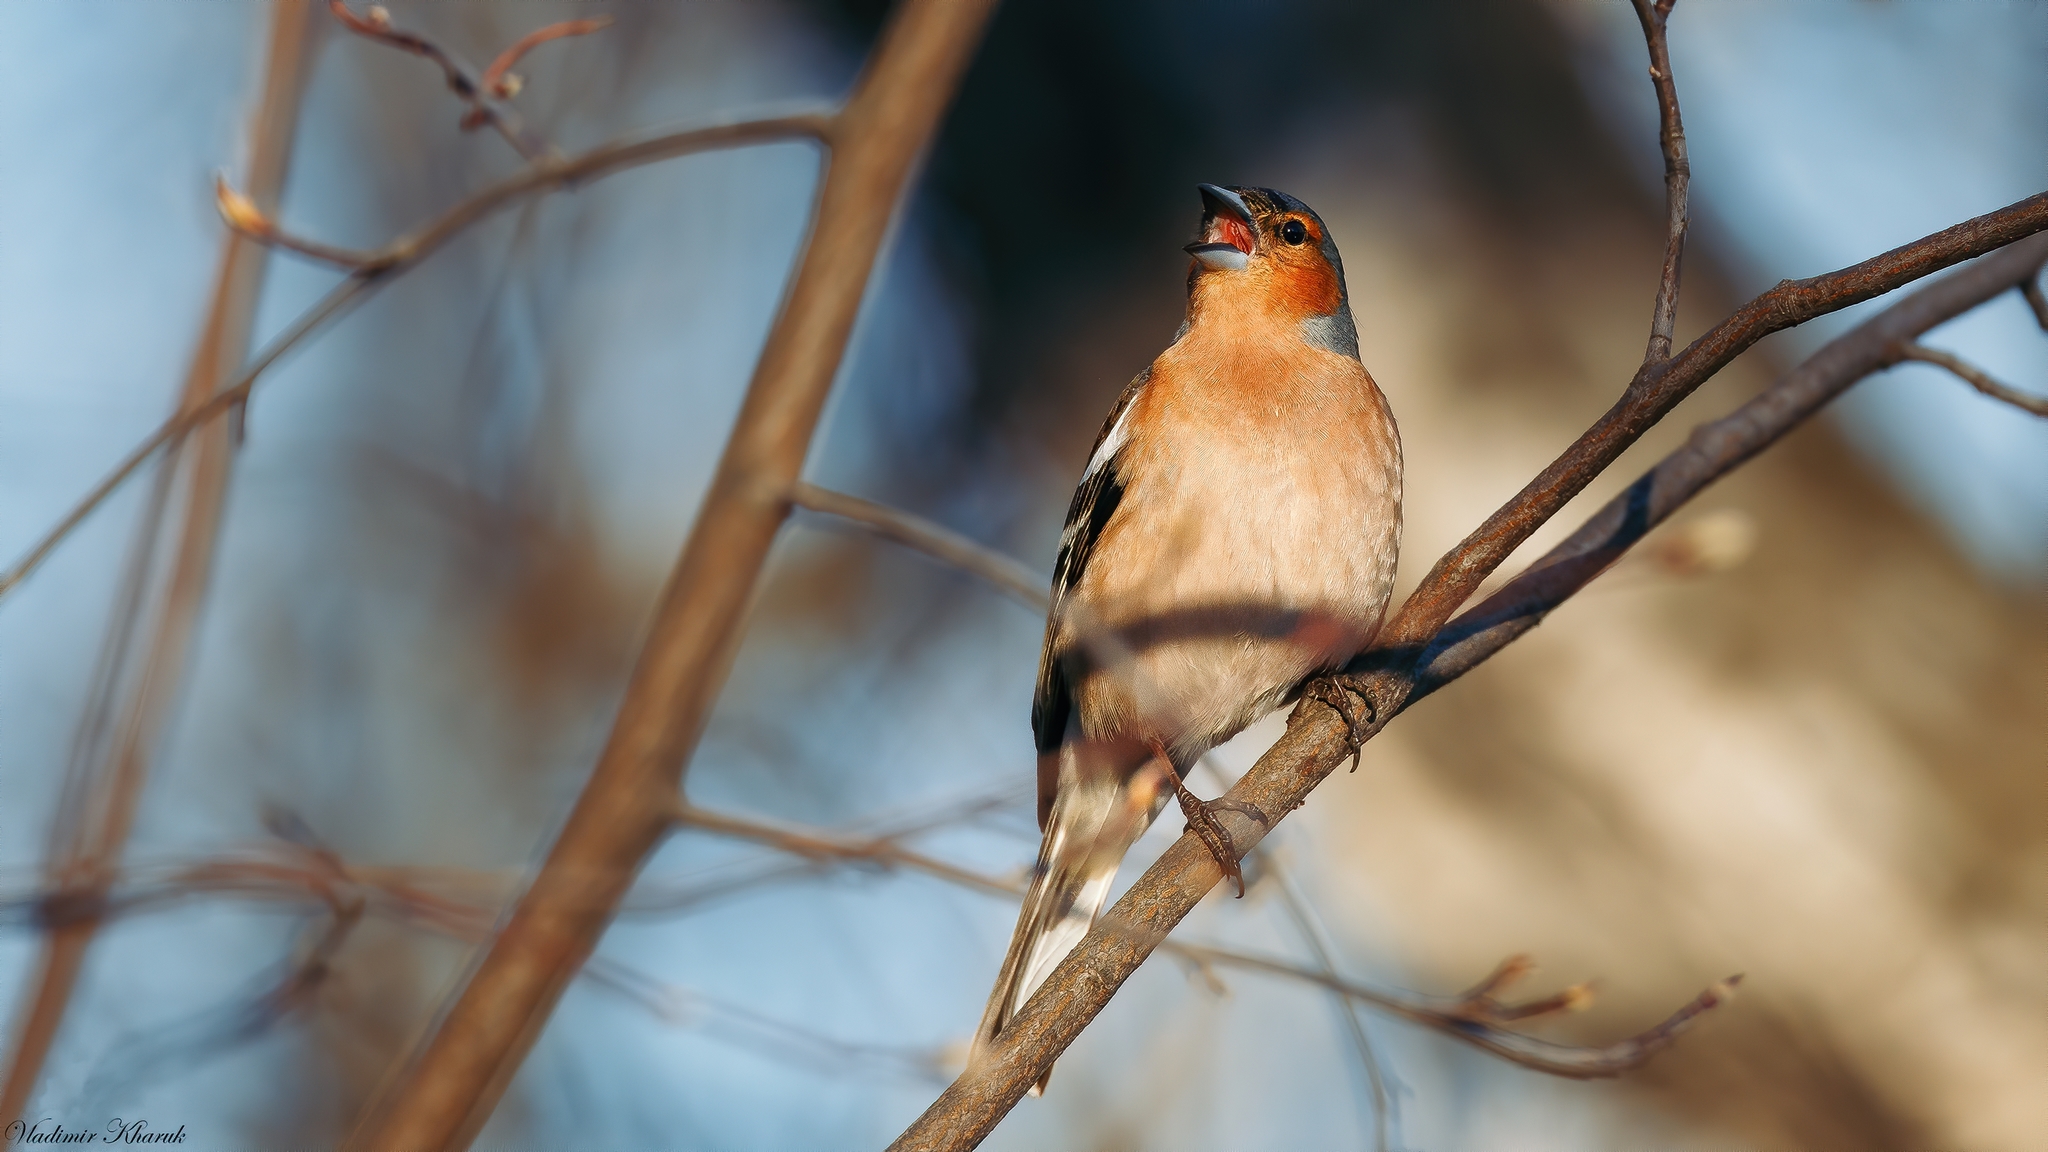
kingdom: Animalia
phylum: Chordata
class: Aves
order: Passeriformes
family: Fringillidae
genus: Fringilla
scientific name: Fringilla coelebs
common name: Common chaffinch
